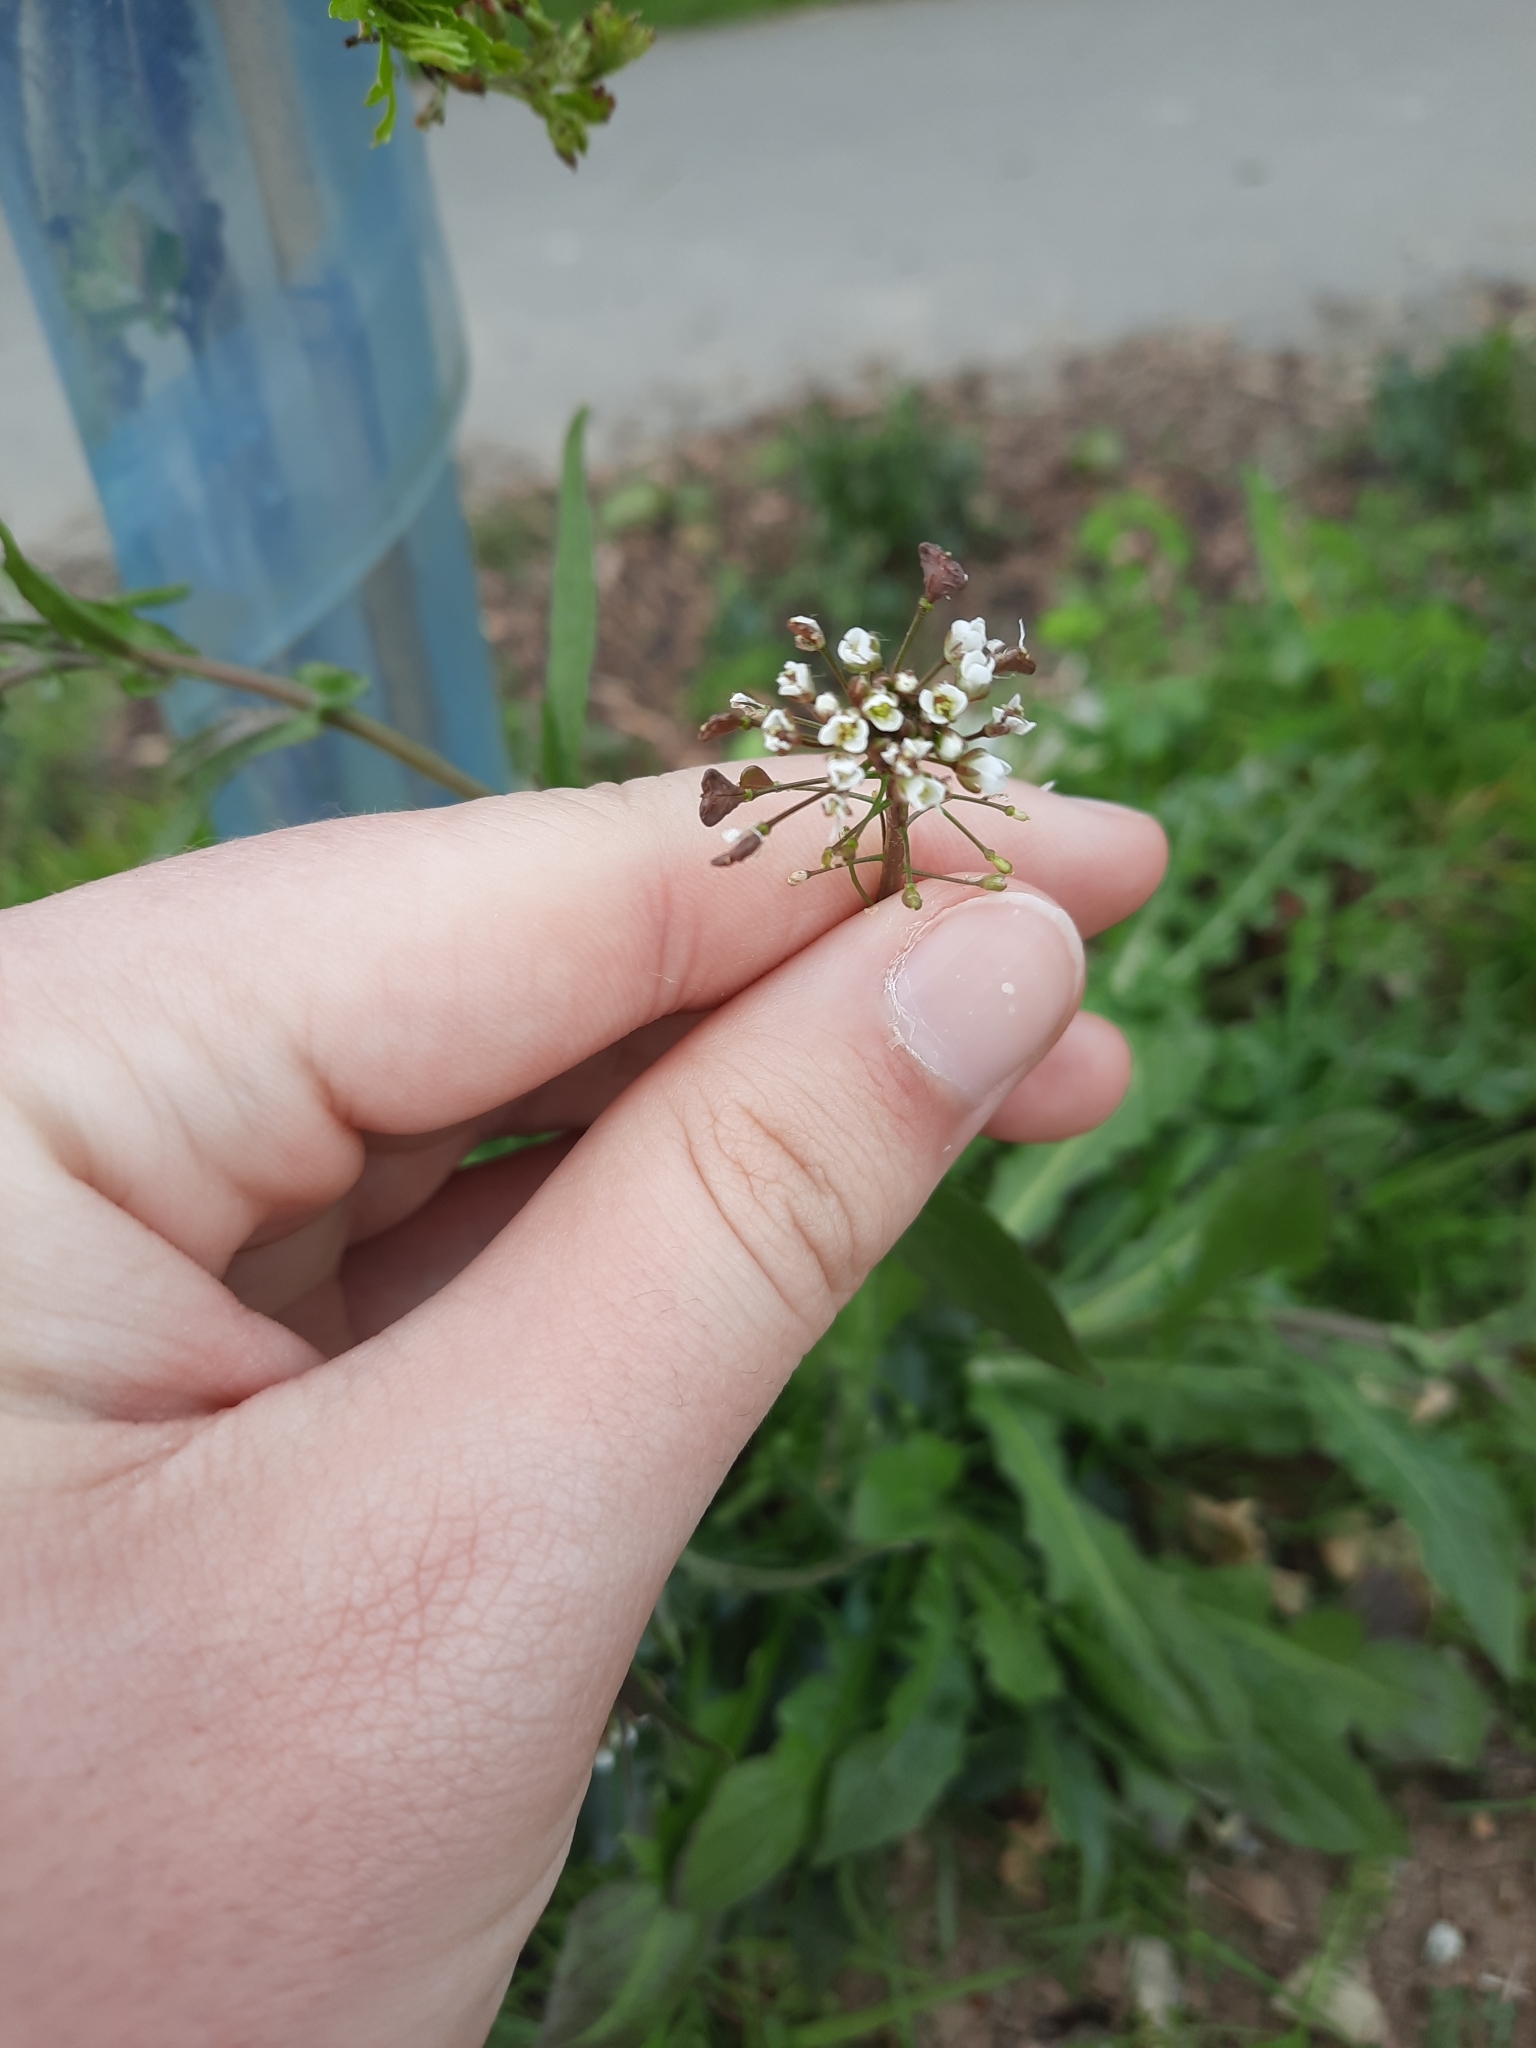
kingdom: Plantae
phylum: Tracheophyta
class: Magnoliopsida
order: Brassicales
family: Brassicaceae
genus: Capsella
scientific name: Capsella bursa-pastoris
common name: Shepherd's purse
